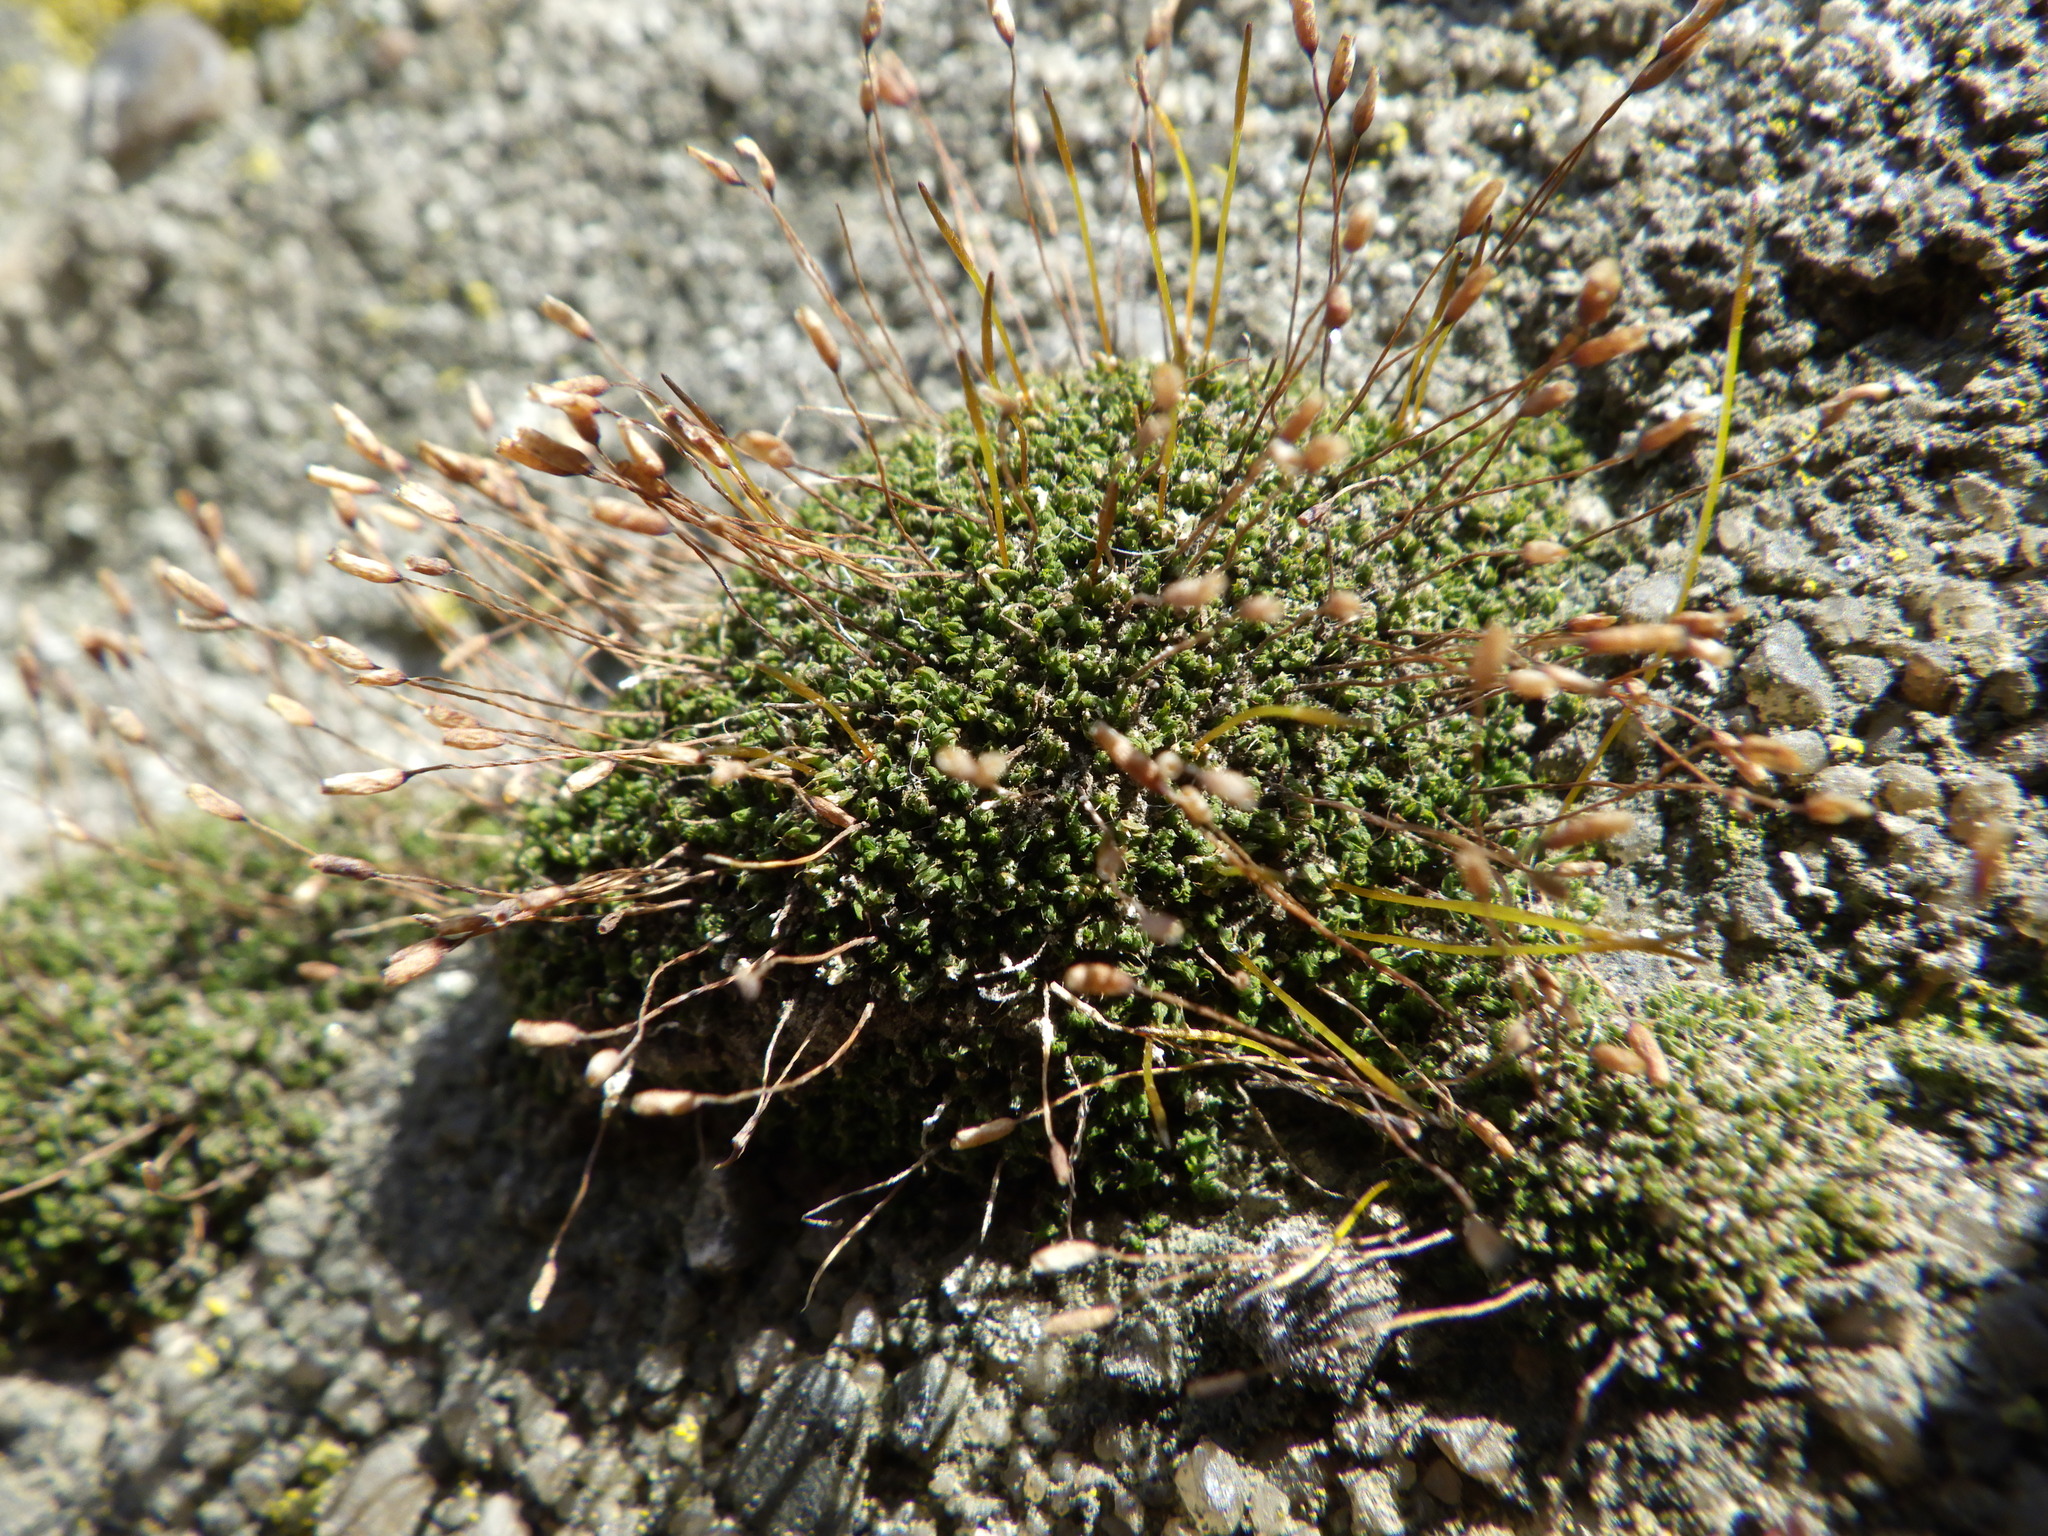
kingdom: Plantae
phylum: Bryophyta
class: Bryopsida
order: Pottiales
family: Pottiaceae
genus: Tortula
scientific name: Tortula muralis
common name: Wall screw-moss
